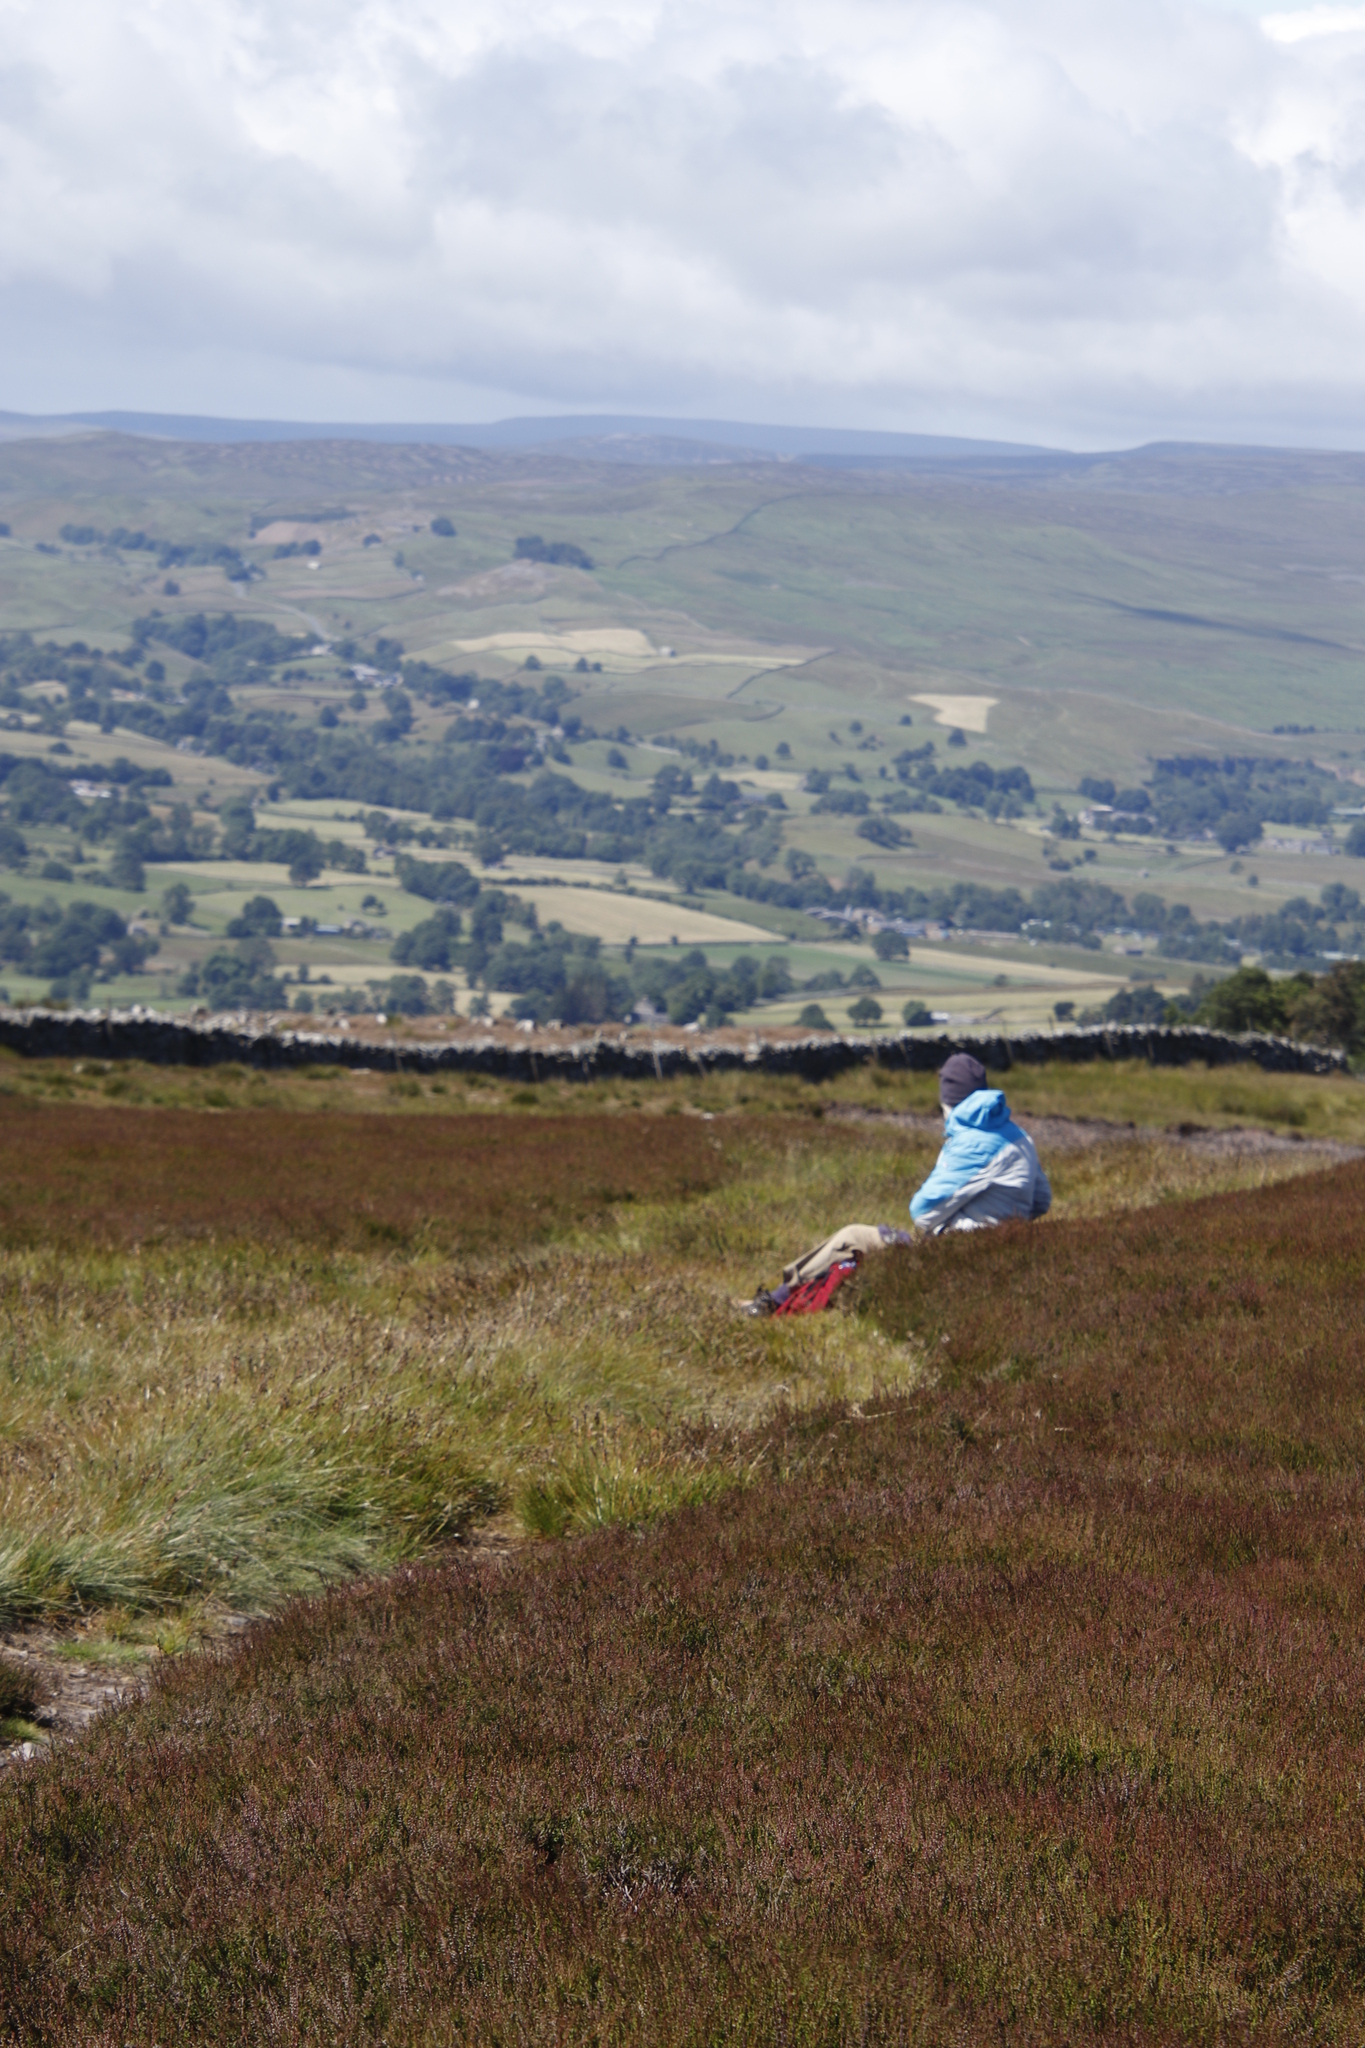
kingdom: Plantae
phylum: Tracheophyta
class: Magnoliopsida
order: Ericales
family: Ericaceae
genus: Calluna
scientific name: Calluna vulgaris
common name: Heather
